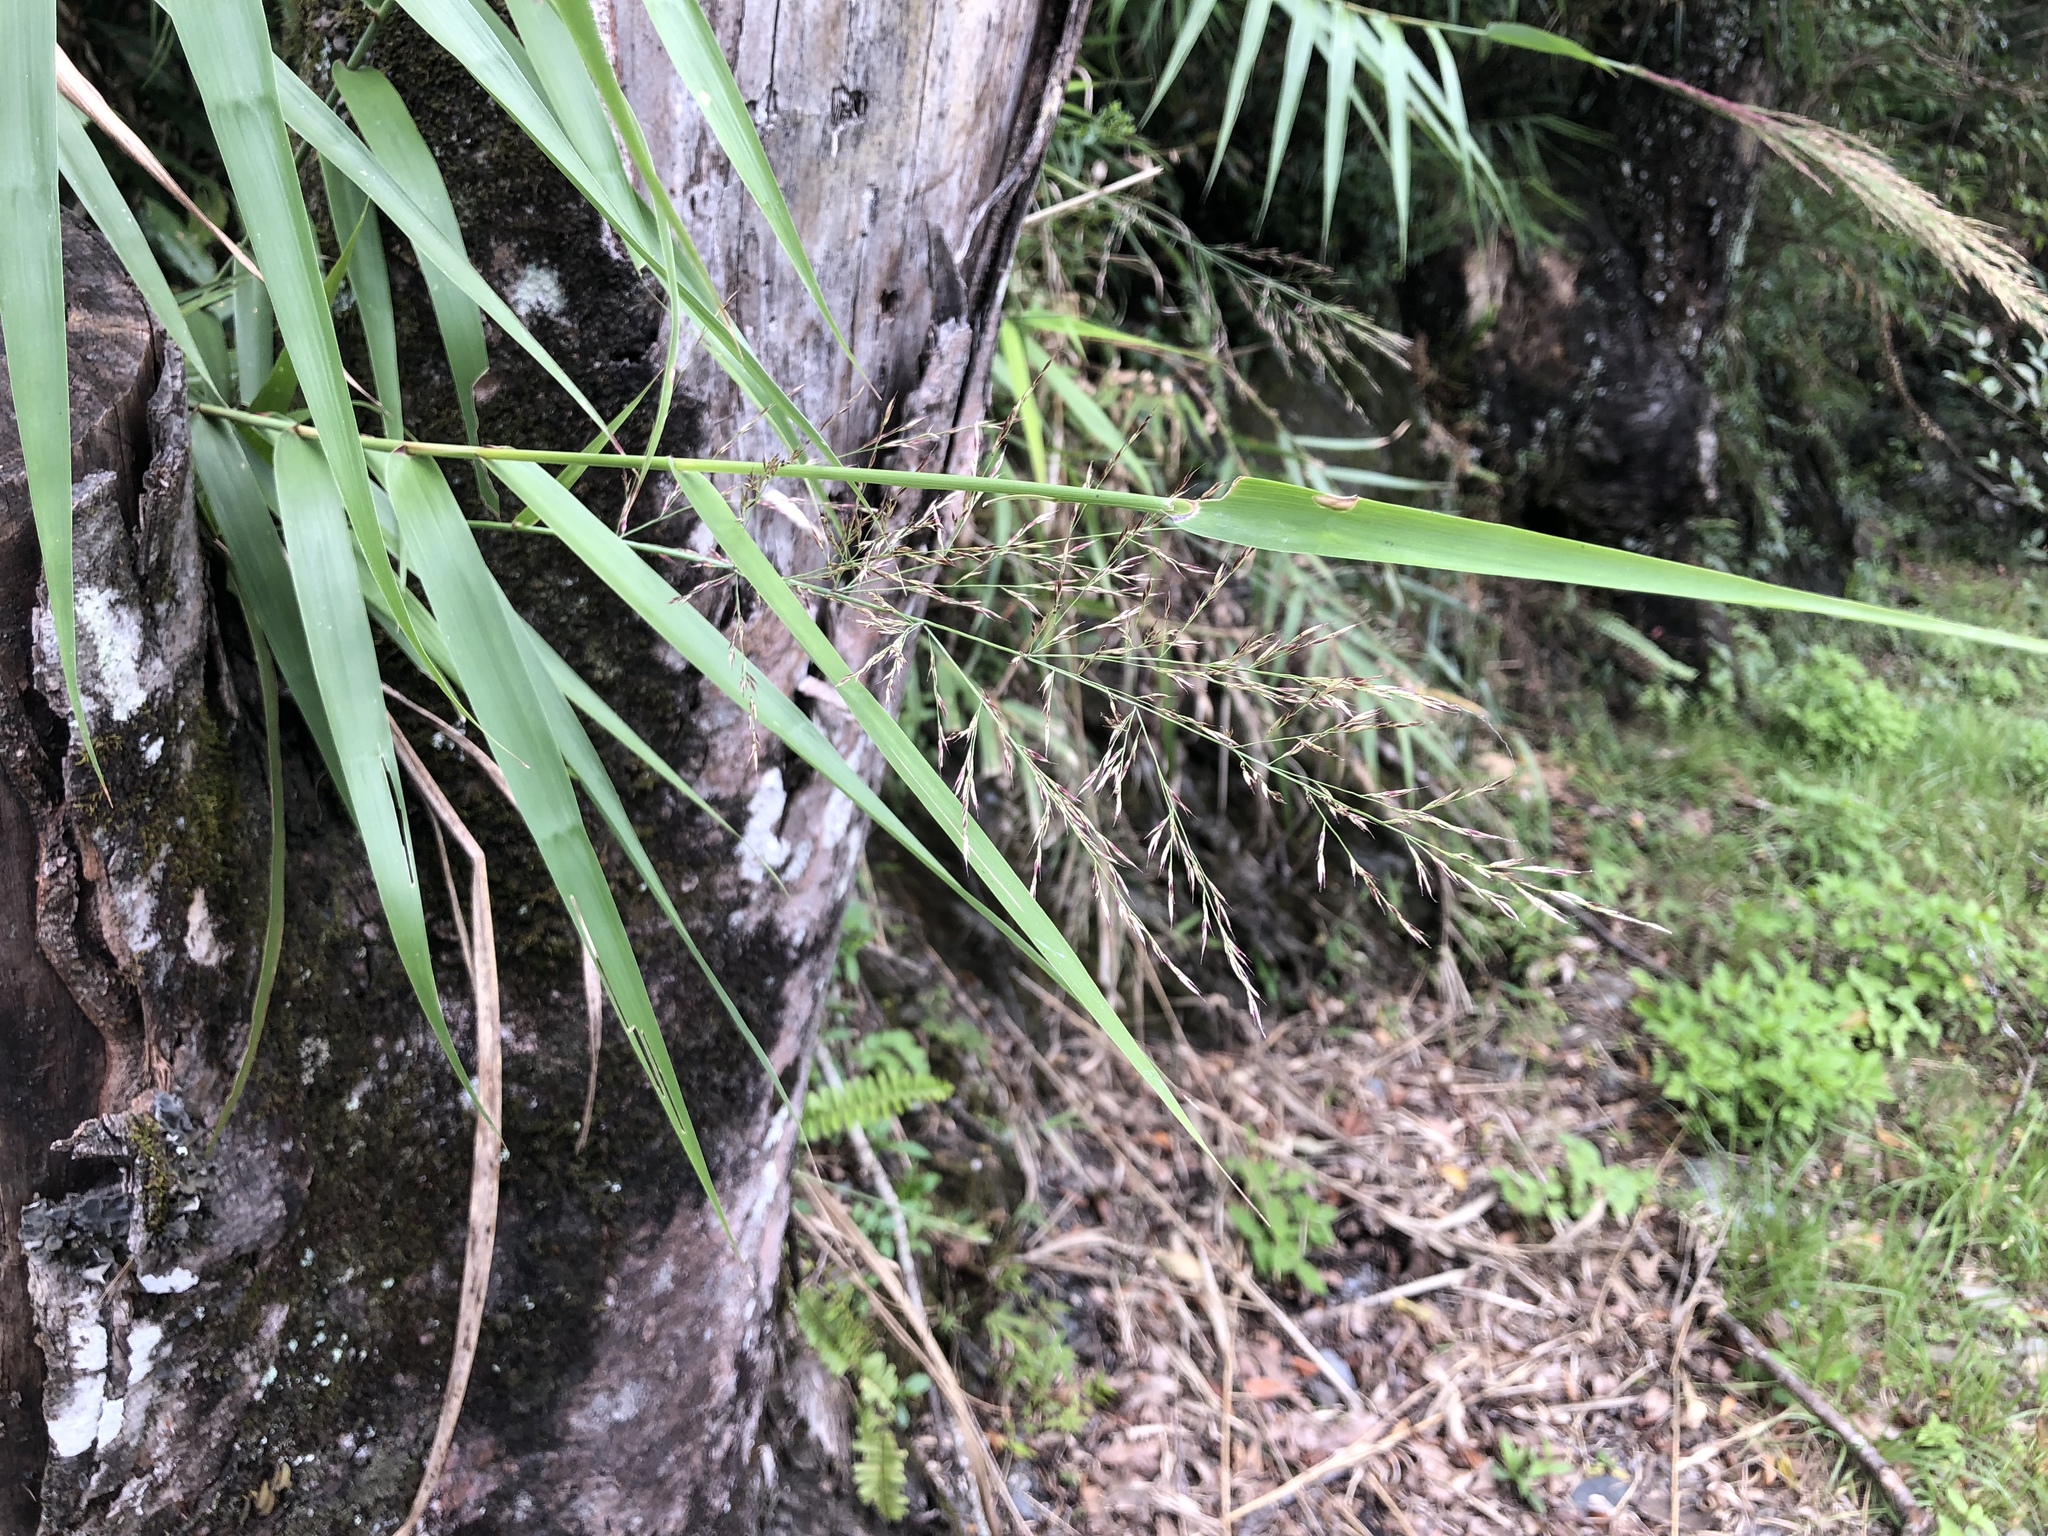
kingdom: Plantae
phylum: Tracheophyta
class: Liliopsida
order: Poales
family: Poaceae
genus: Arundo
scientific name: Arundo formosana
